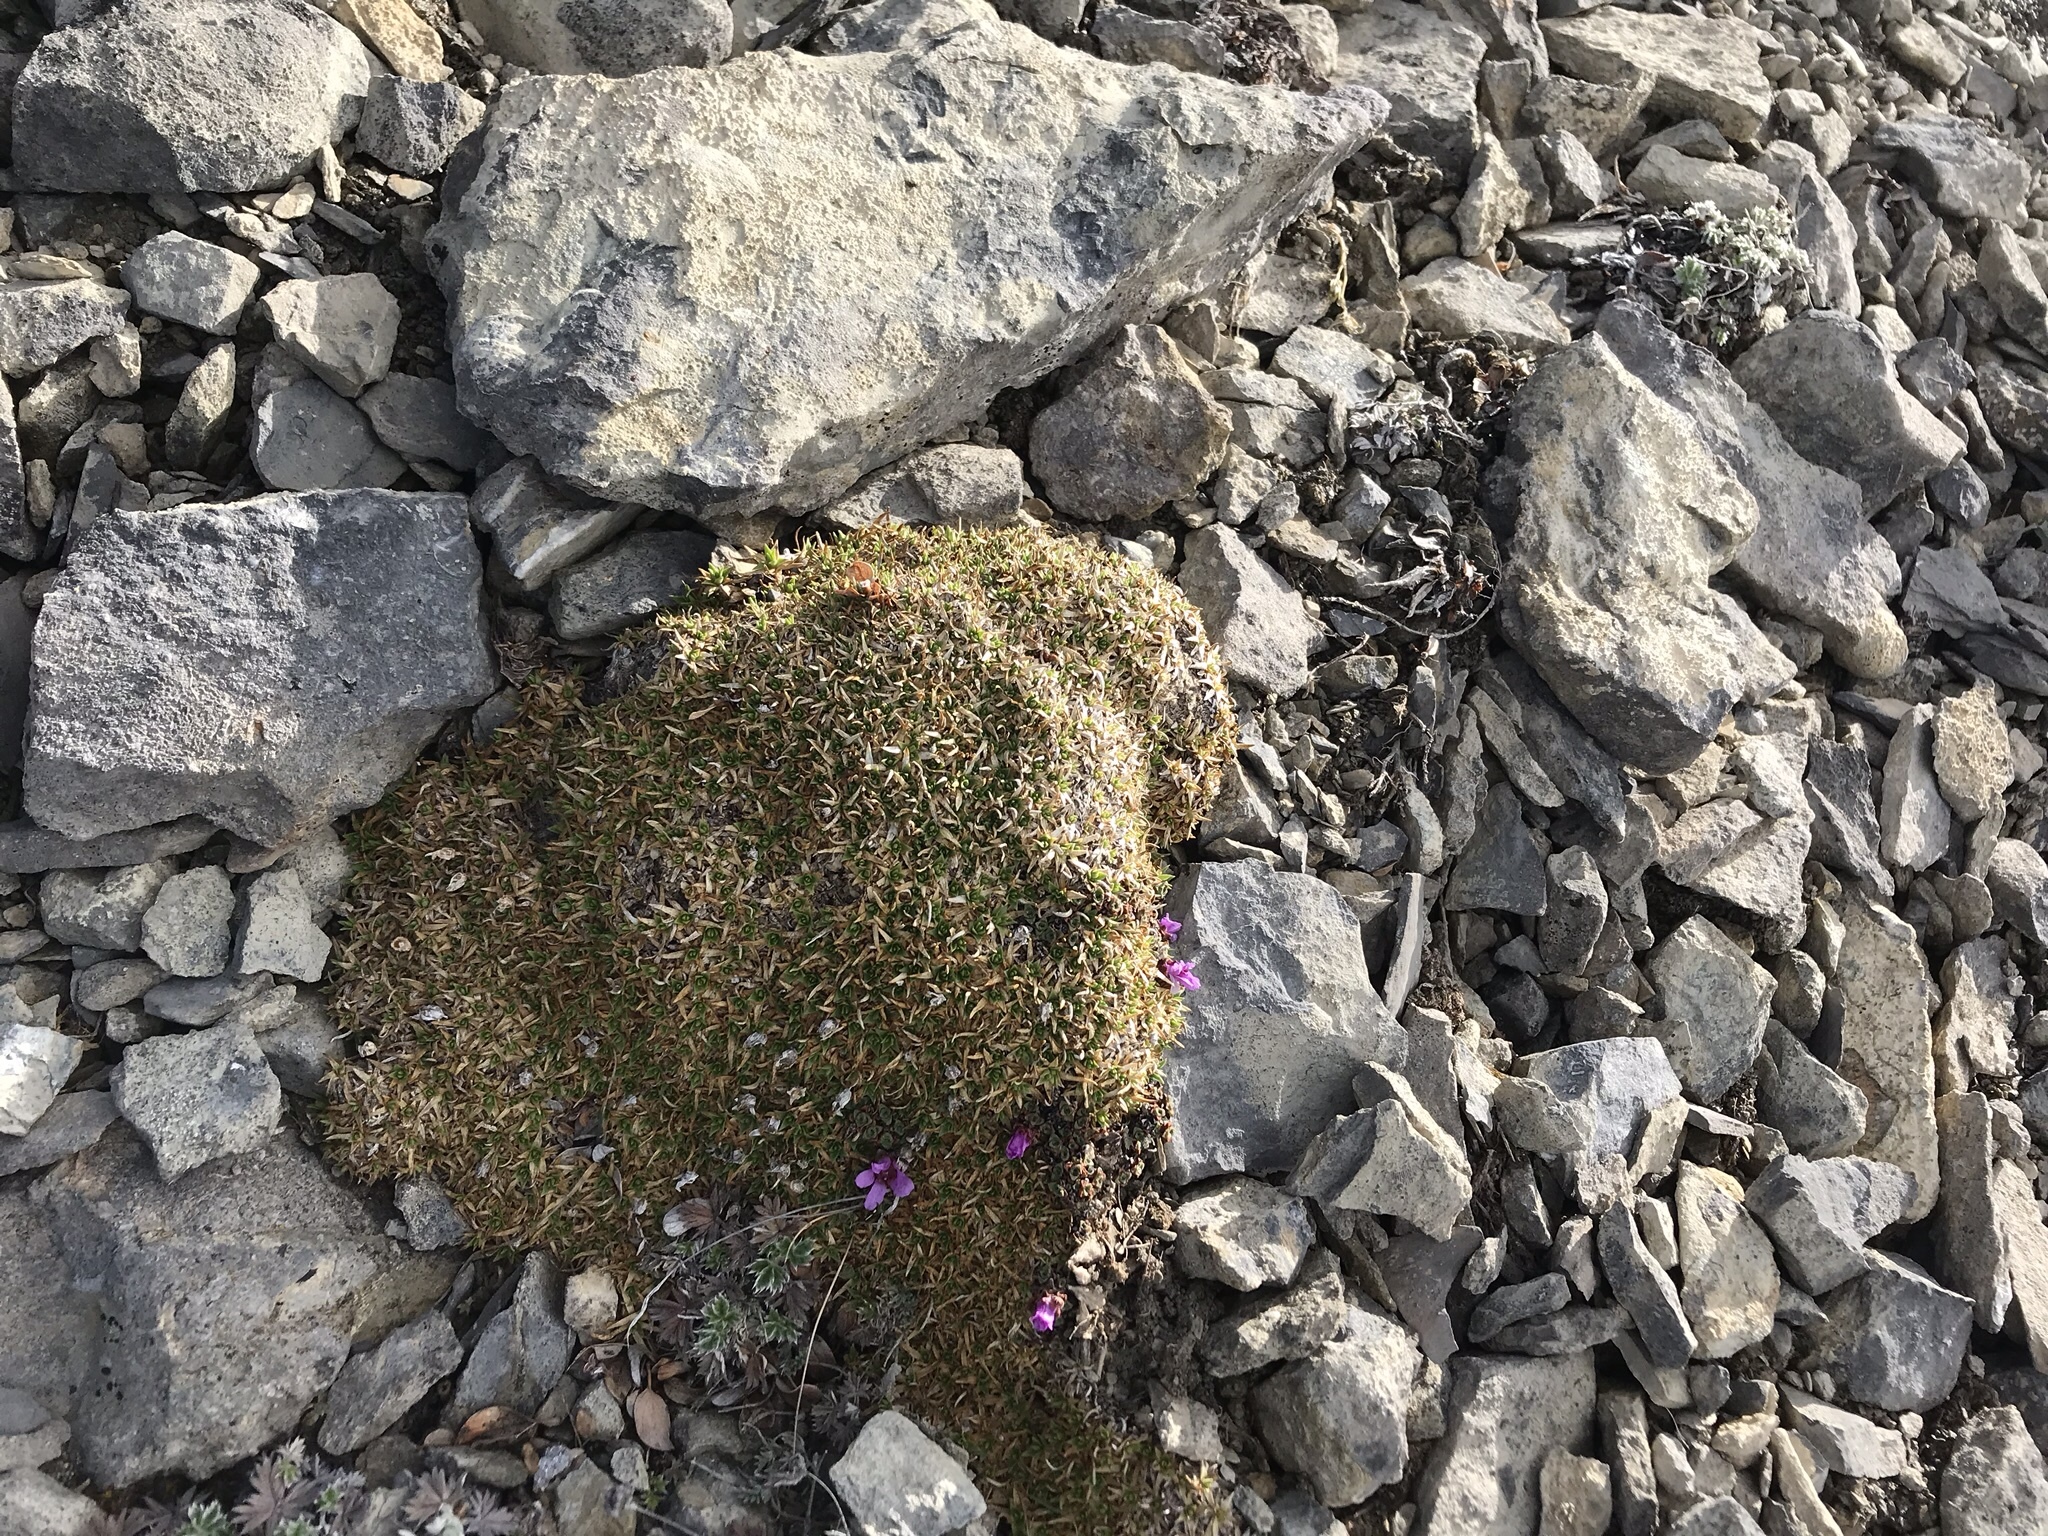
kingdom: Plantae
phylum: Tracheophyta
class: Magnoliopsida
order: Saxifragales
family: Saxifragaceae
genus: Saxifraga
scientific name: Saxifraga oppositifolia
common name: Purple saxifrage
